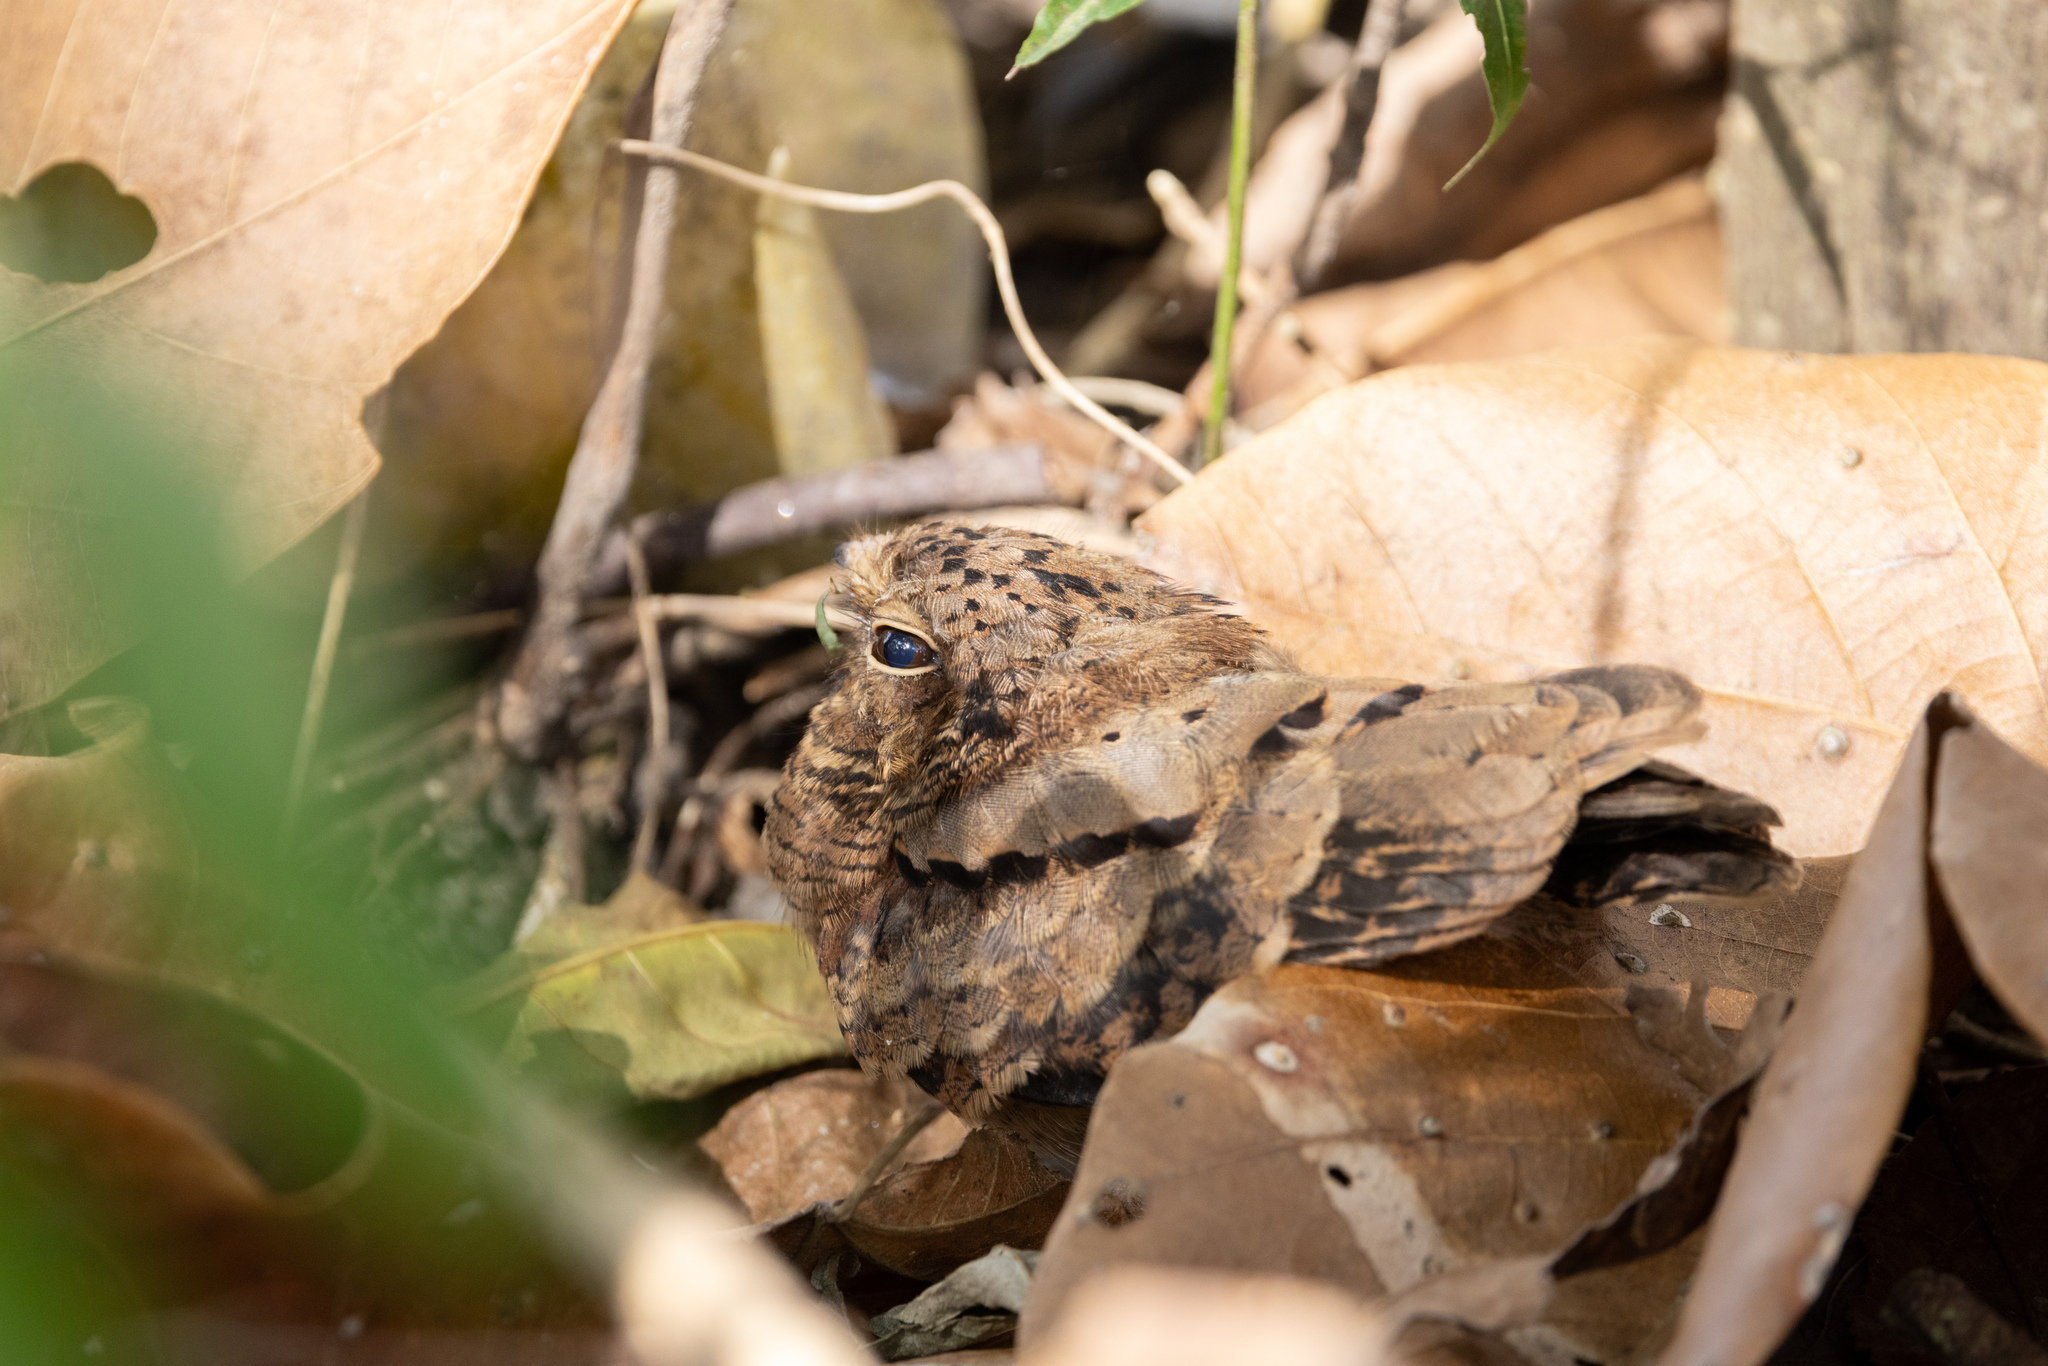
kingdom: Animalia
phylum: Chordata
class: Aves
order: Caprimulgiformes
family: Caprimulgidae
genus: Nyctidromus
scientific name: Nyctidromus albicollis
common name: Pauraque
